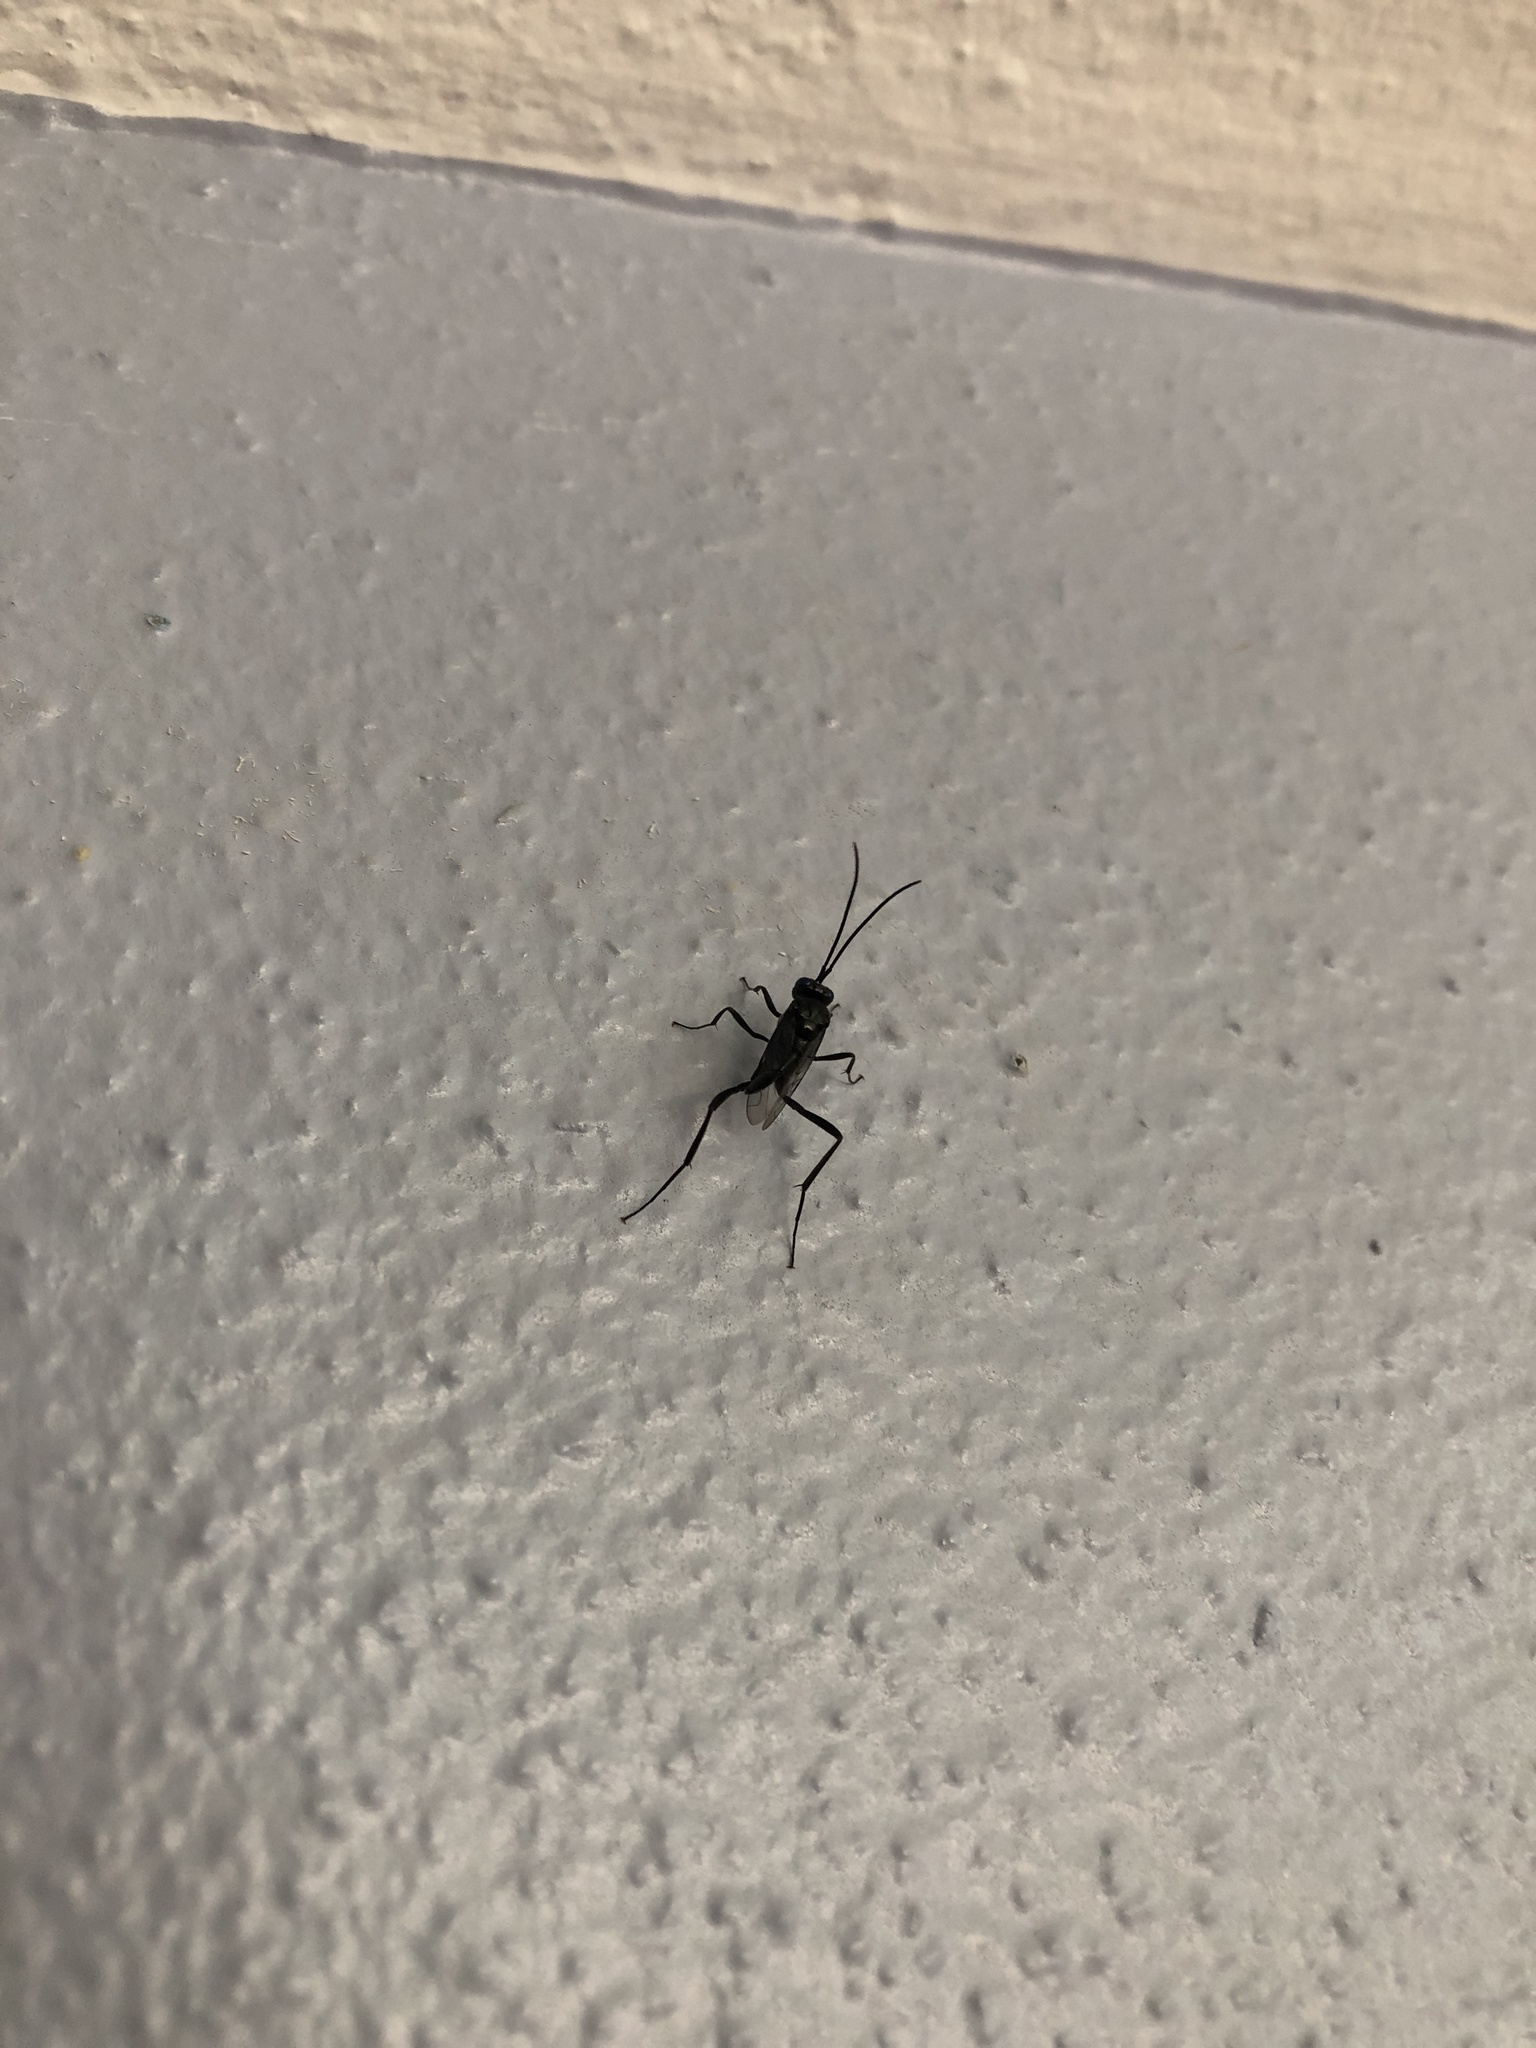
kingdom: Animalia
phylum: Arthropoda
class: Insecta
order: Hymenoptera
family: Evaniidae
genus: Evania
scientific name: Evania appendigaster
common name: Ensign wasp
